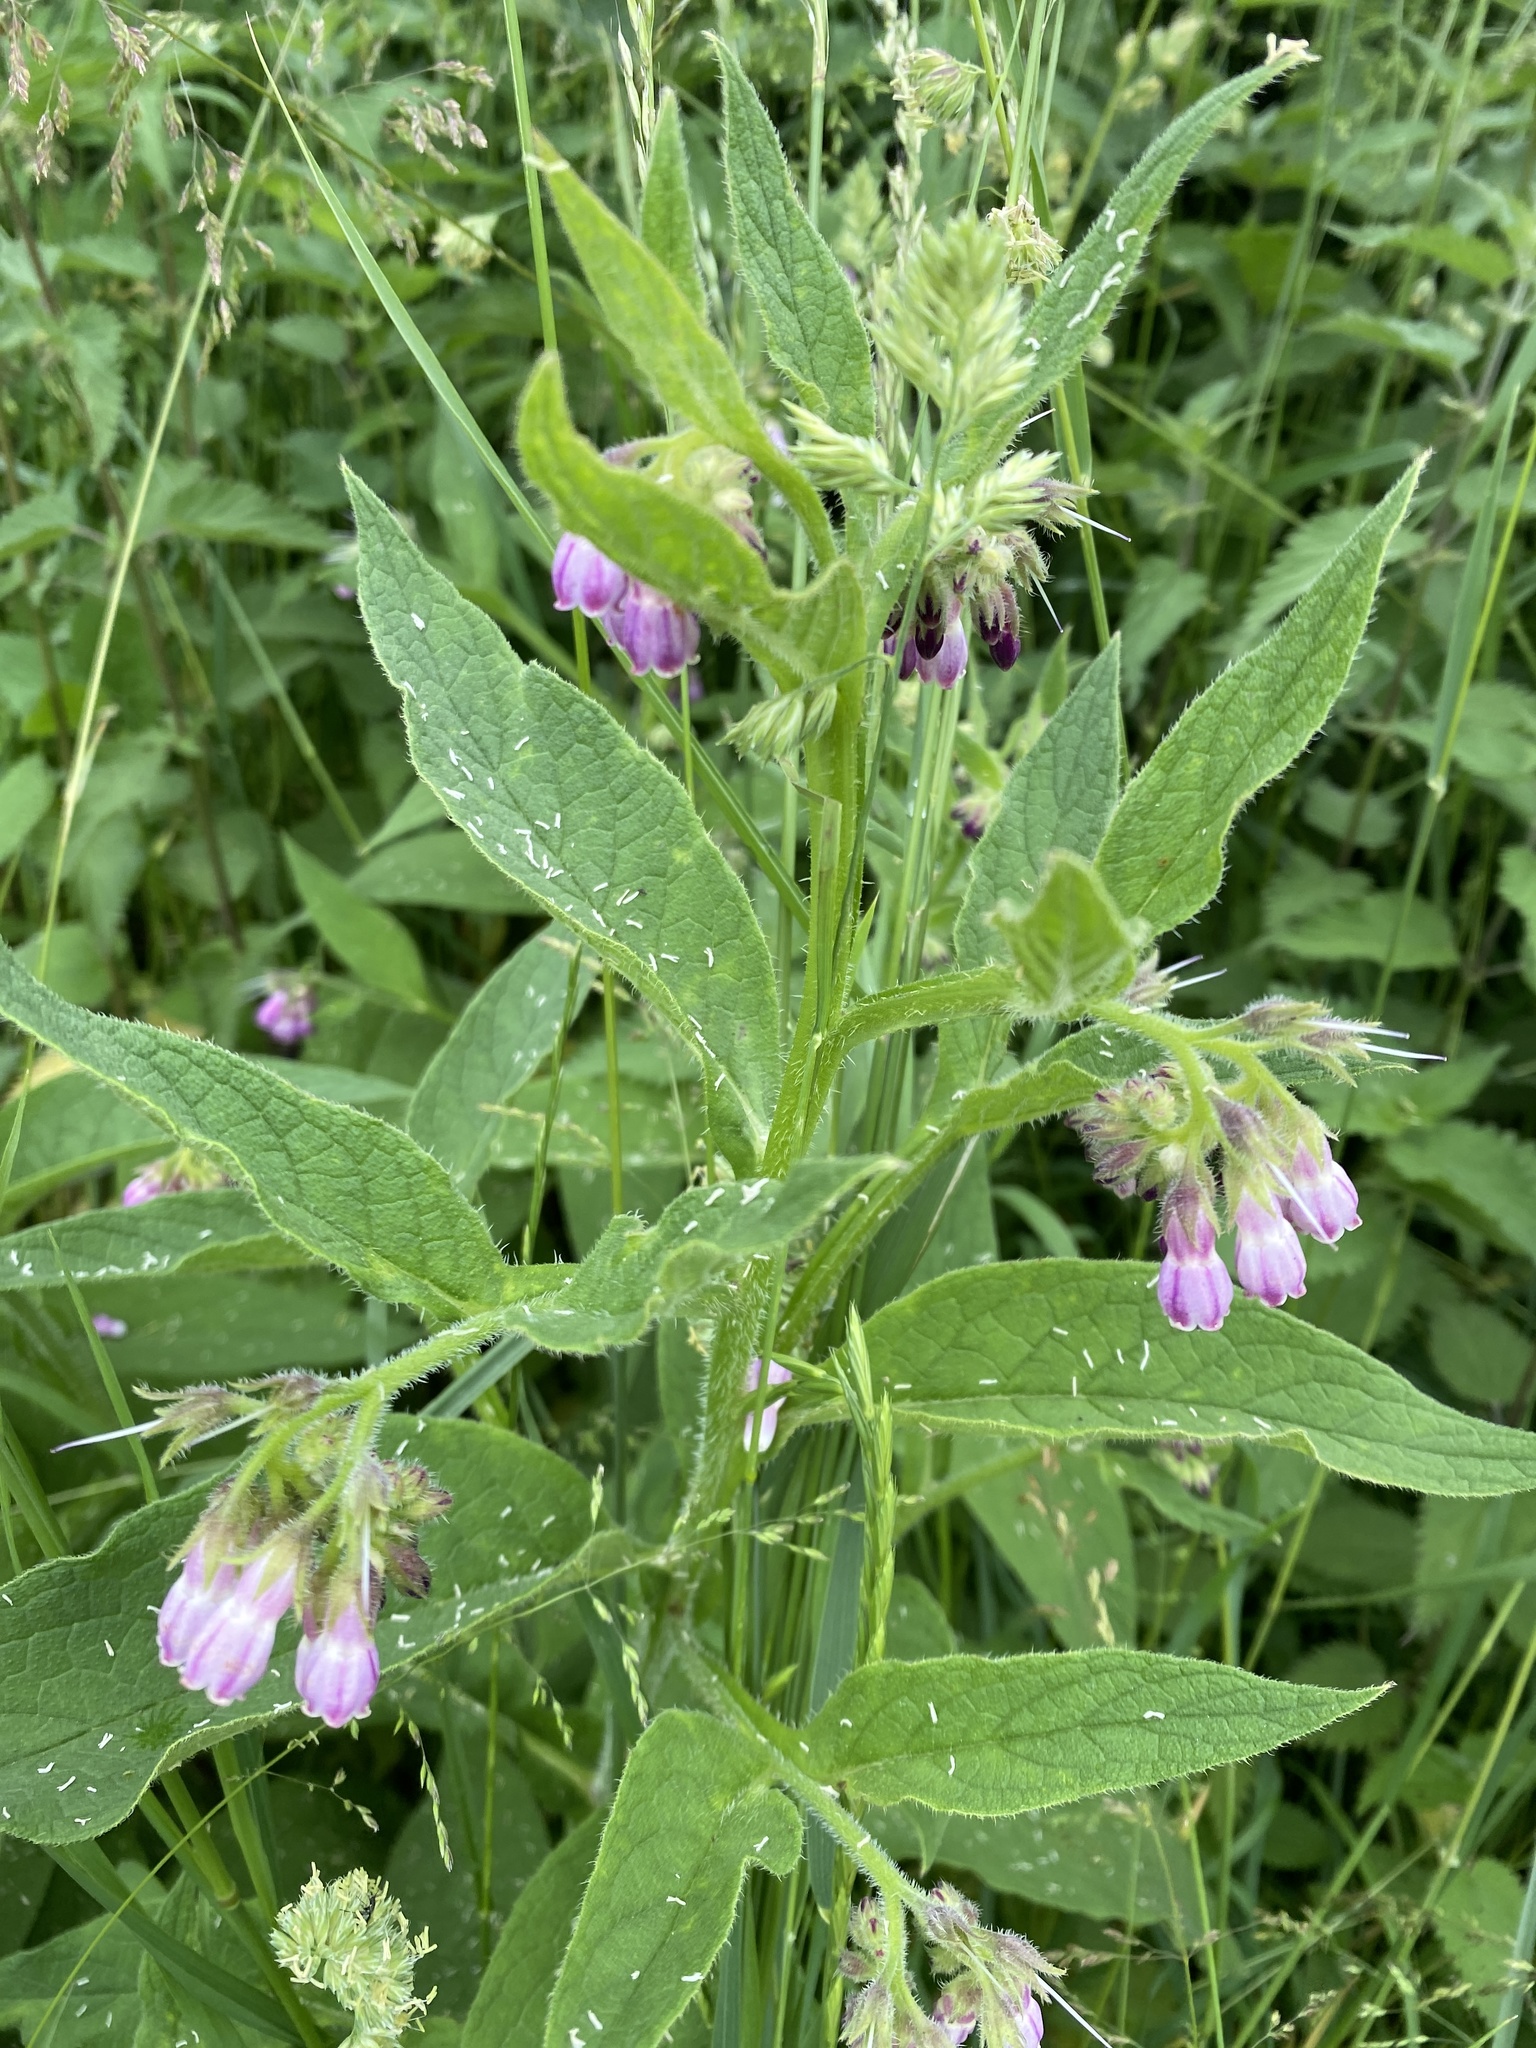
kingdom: Plantae
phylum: Tracheophyta
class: Magnoliopsida
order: Boraginales
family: Boraginaceae
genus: Symphytum
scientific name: Symphytum officinale
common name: Common comfrey
